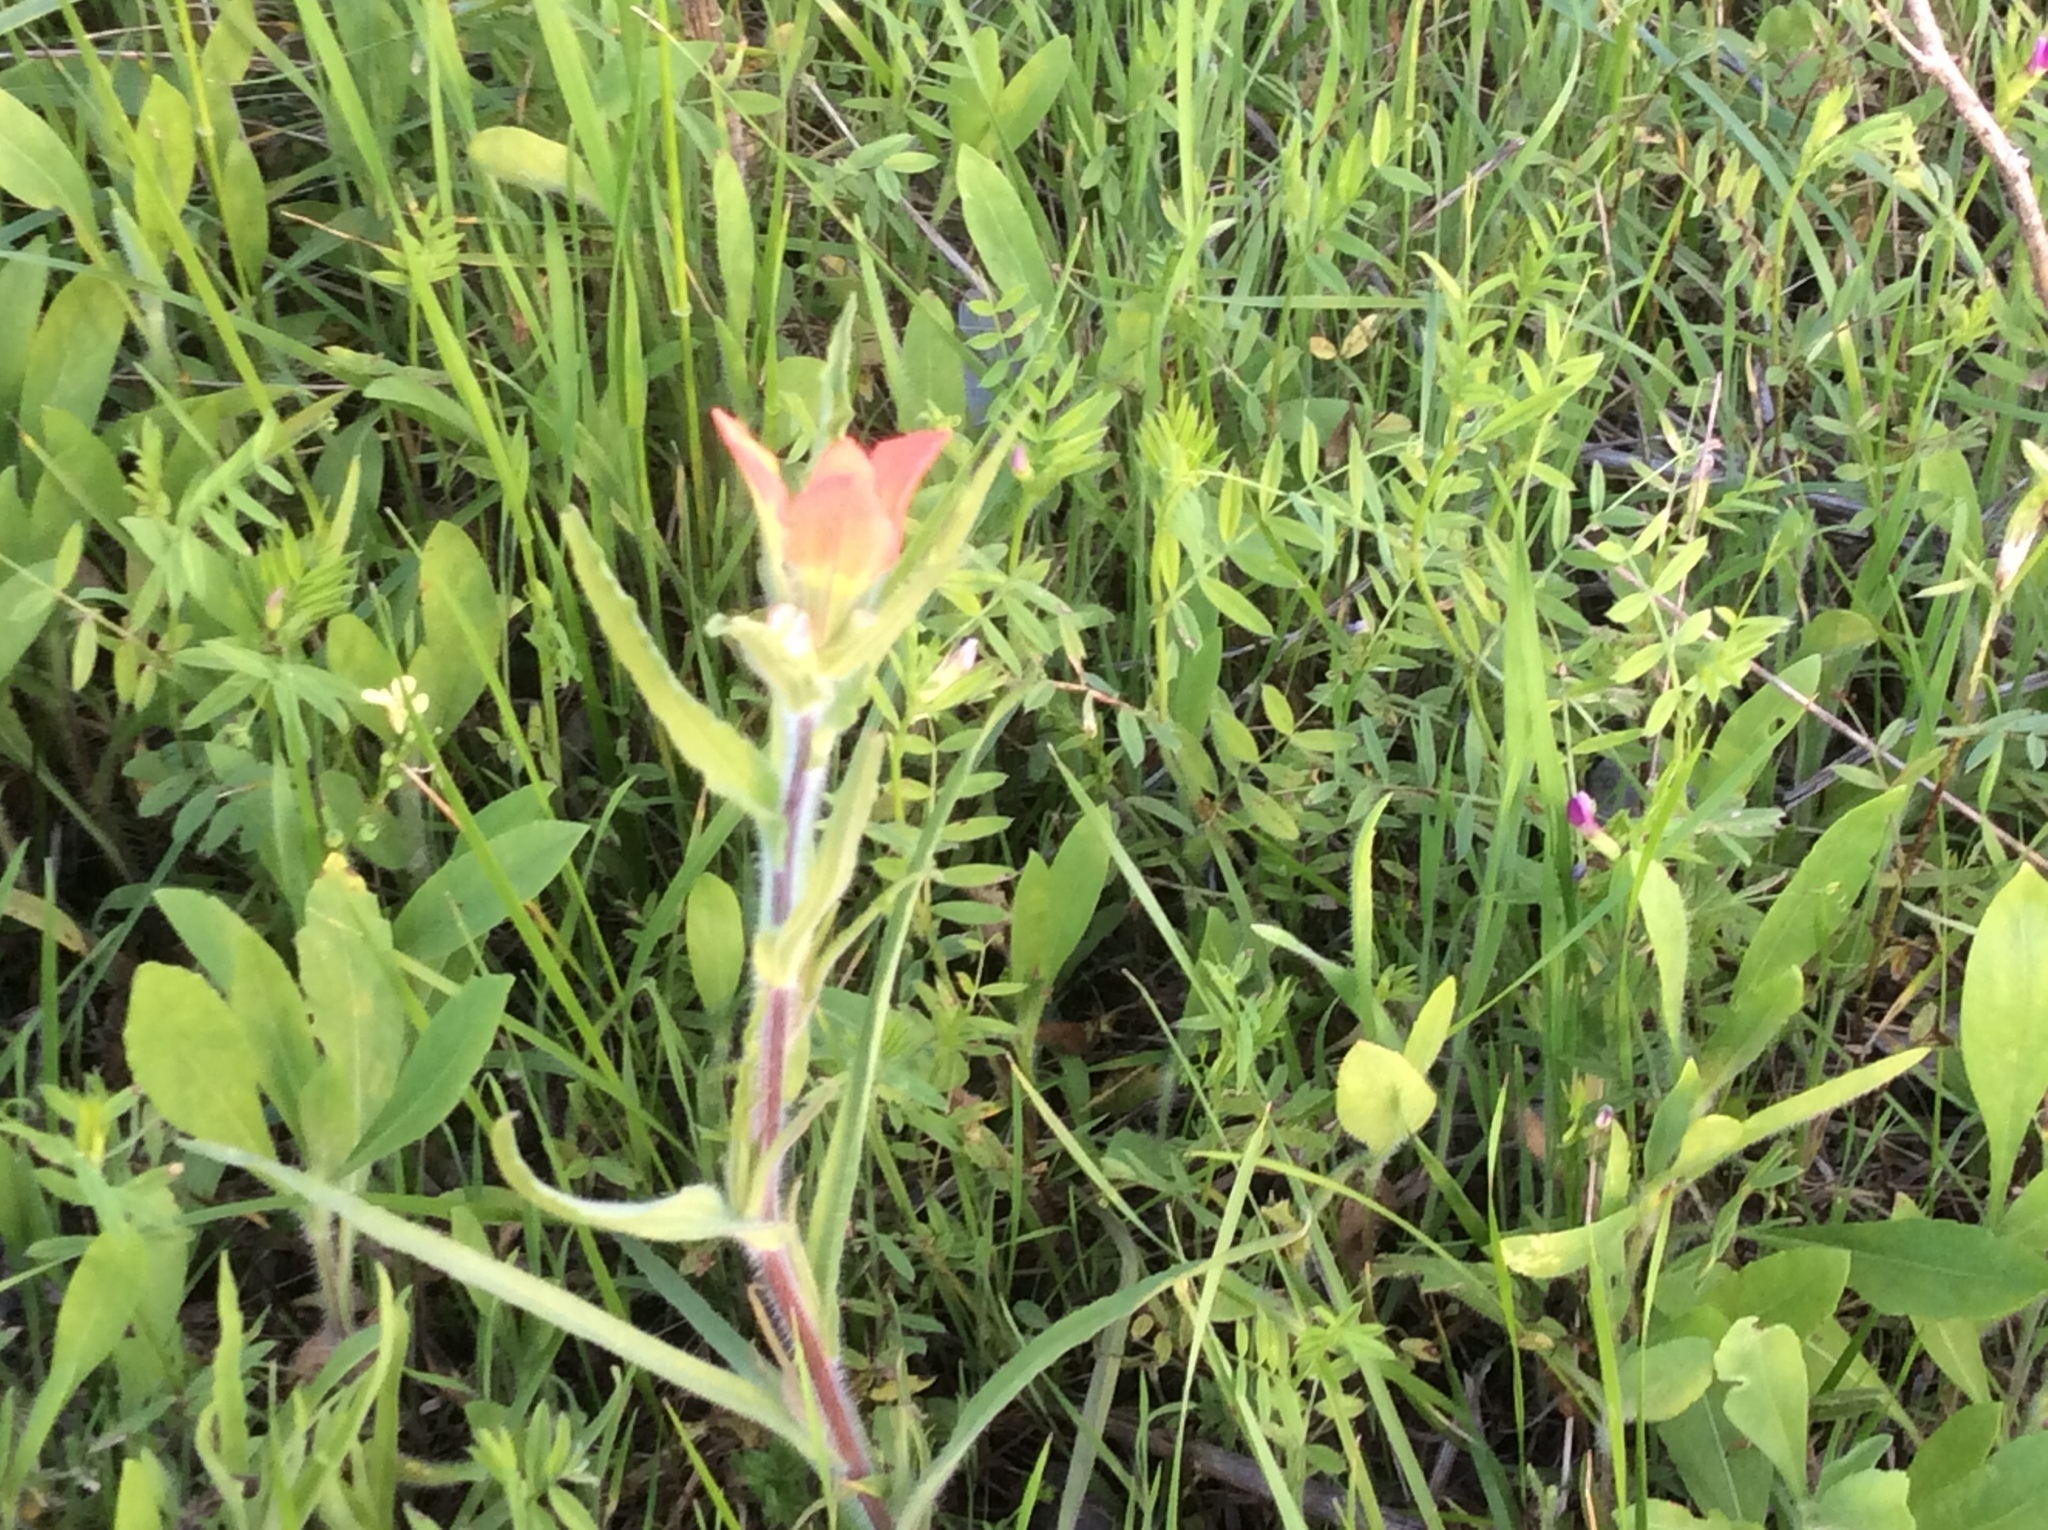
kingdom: Plantae
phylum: Tracheophyta
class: Magnoliopsida
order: Lamiales
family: Orobanchaceae
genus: Castilleja
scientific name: Castilleja indivisa
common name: Texas paintbrush
